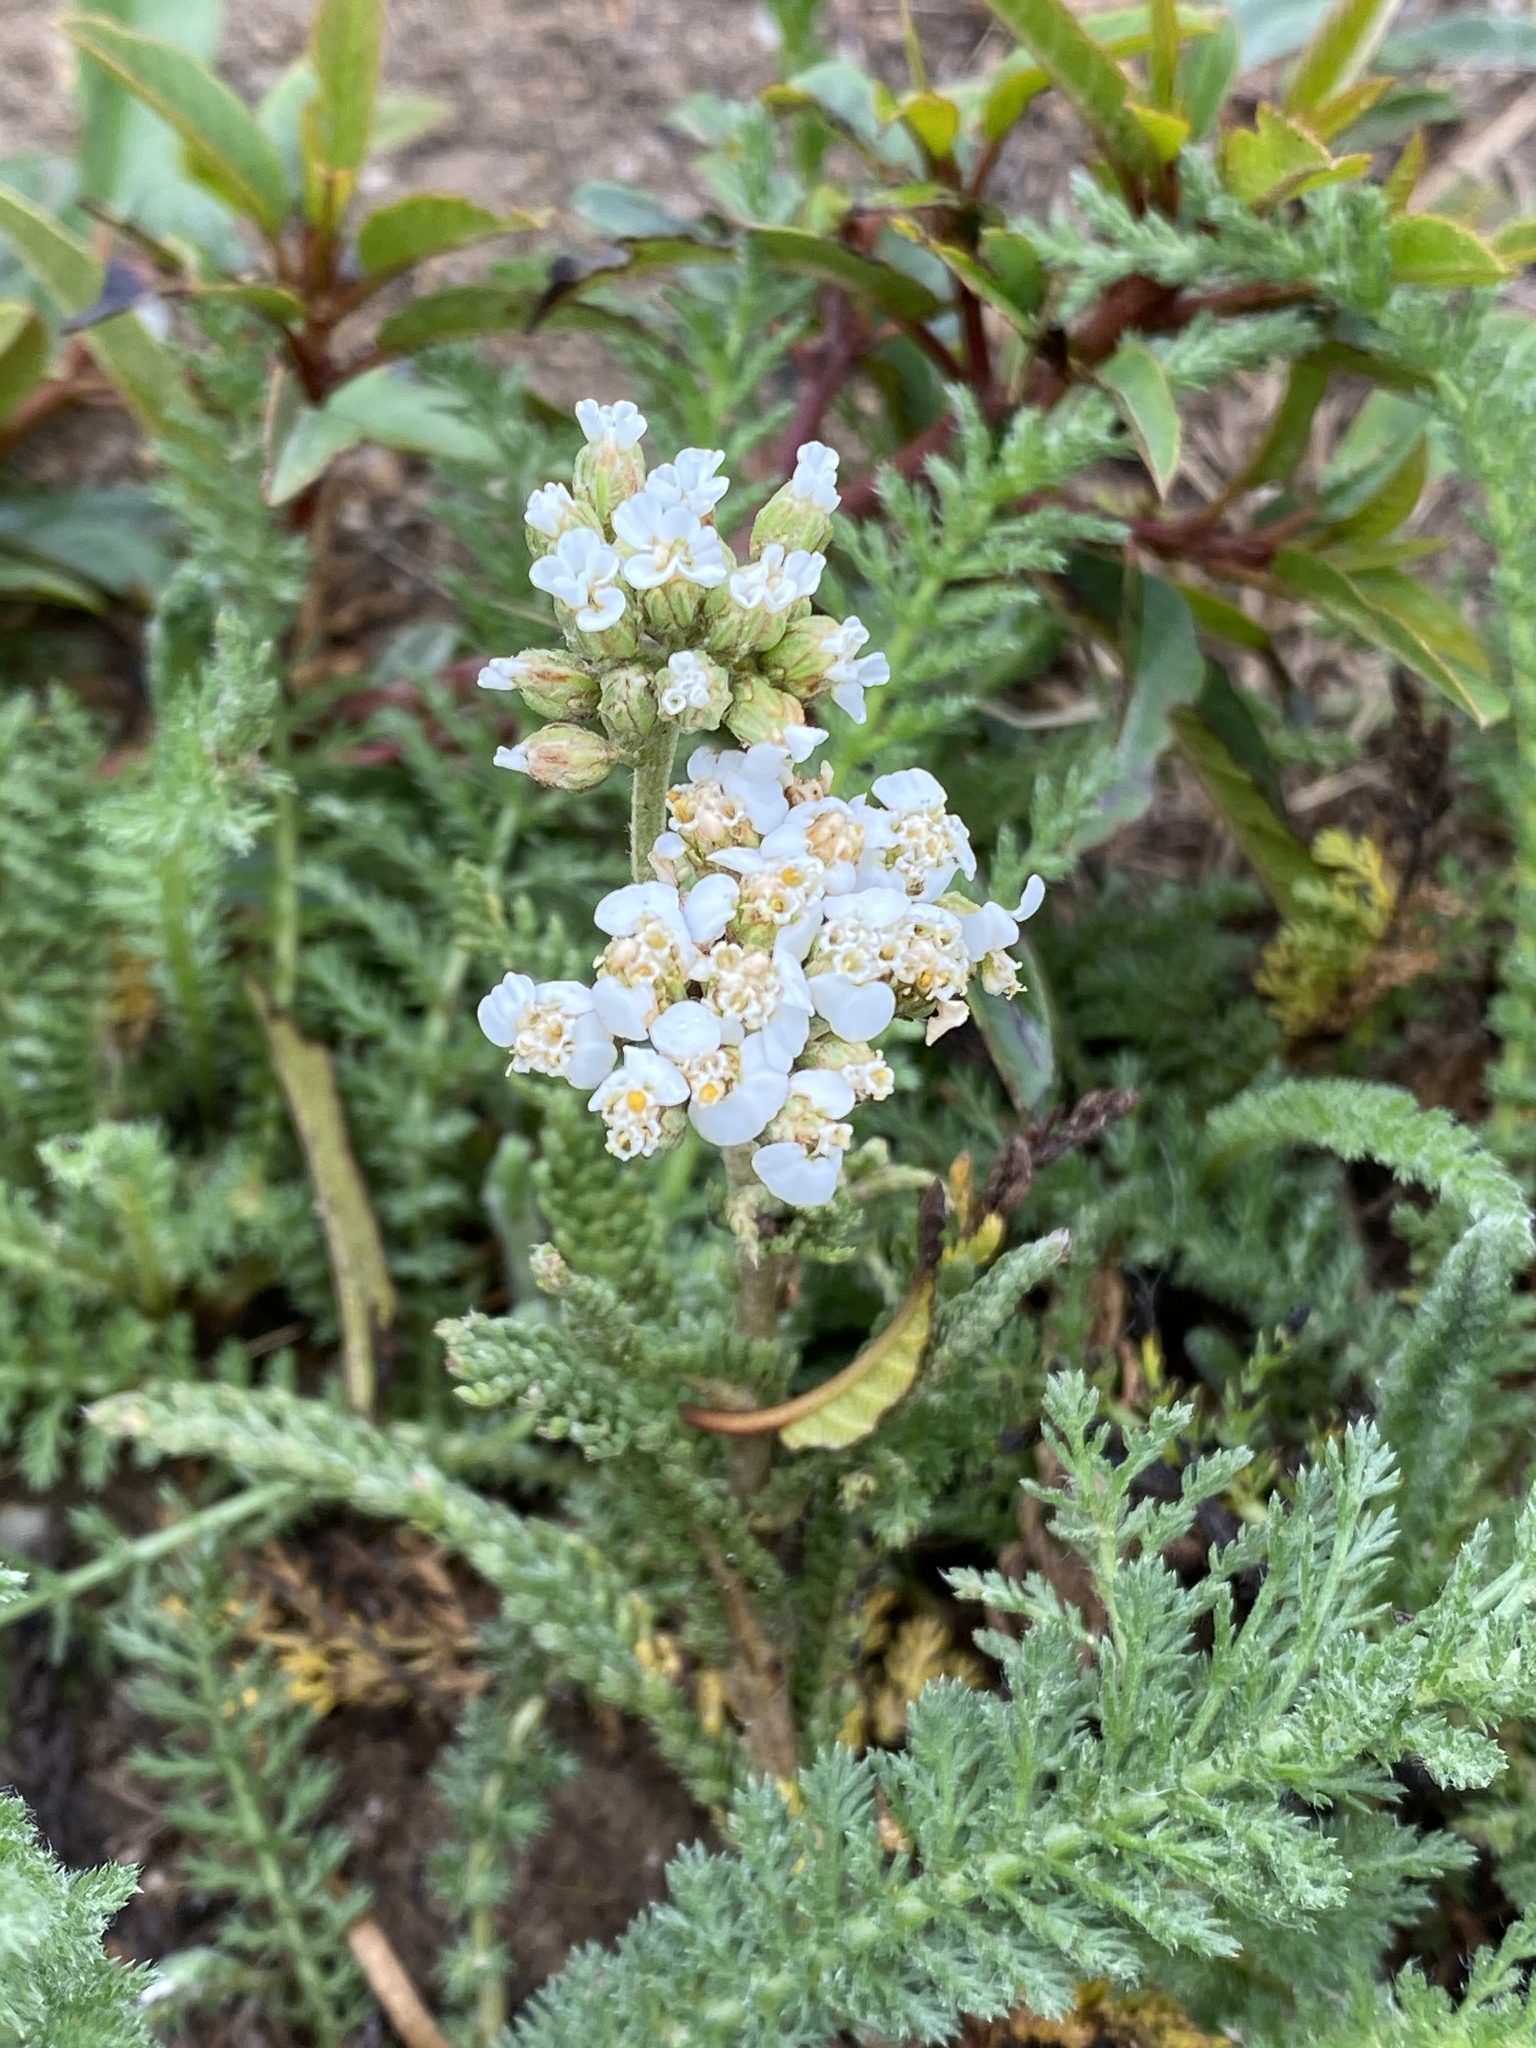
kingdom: Plantae
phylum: Tracheophyta
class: Magnoliopsida
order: Asterales
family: Asteraceae
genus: Achillea
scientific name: Achillea millefolium
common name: Yarrow
